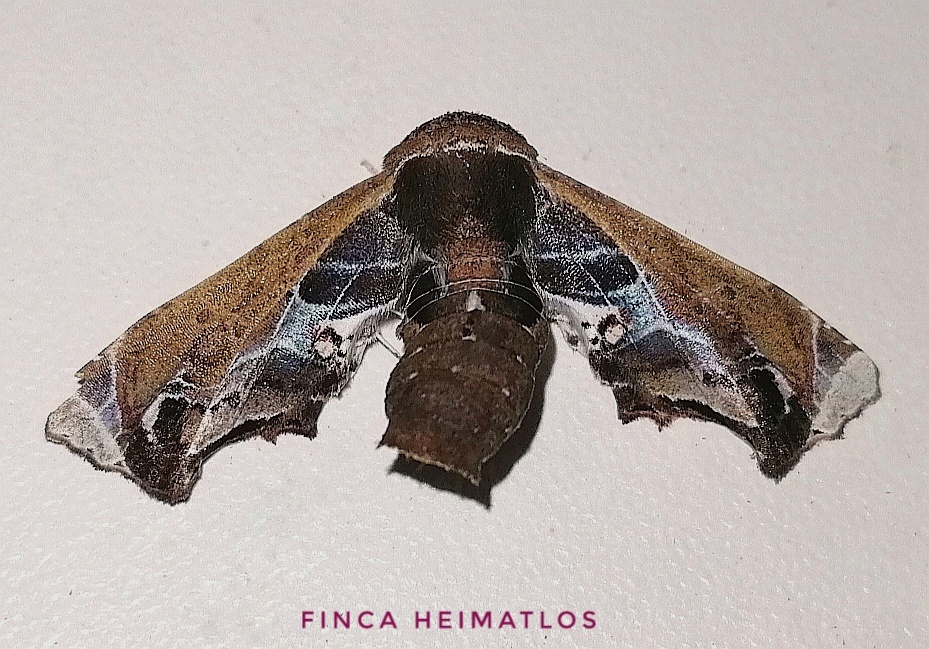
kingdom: Animalia
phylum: Arthropoda
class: Insecta
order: Lepidoptera
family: Euteliidae
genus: Eutelia
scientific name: Eutelia abscondens
